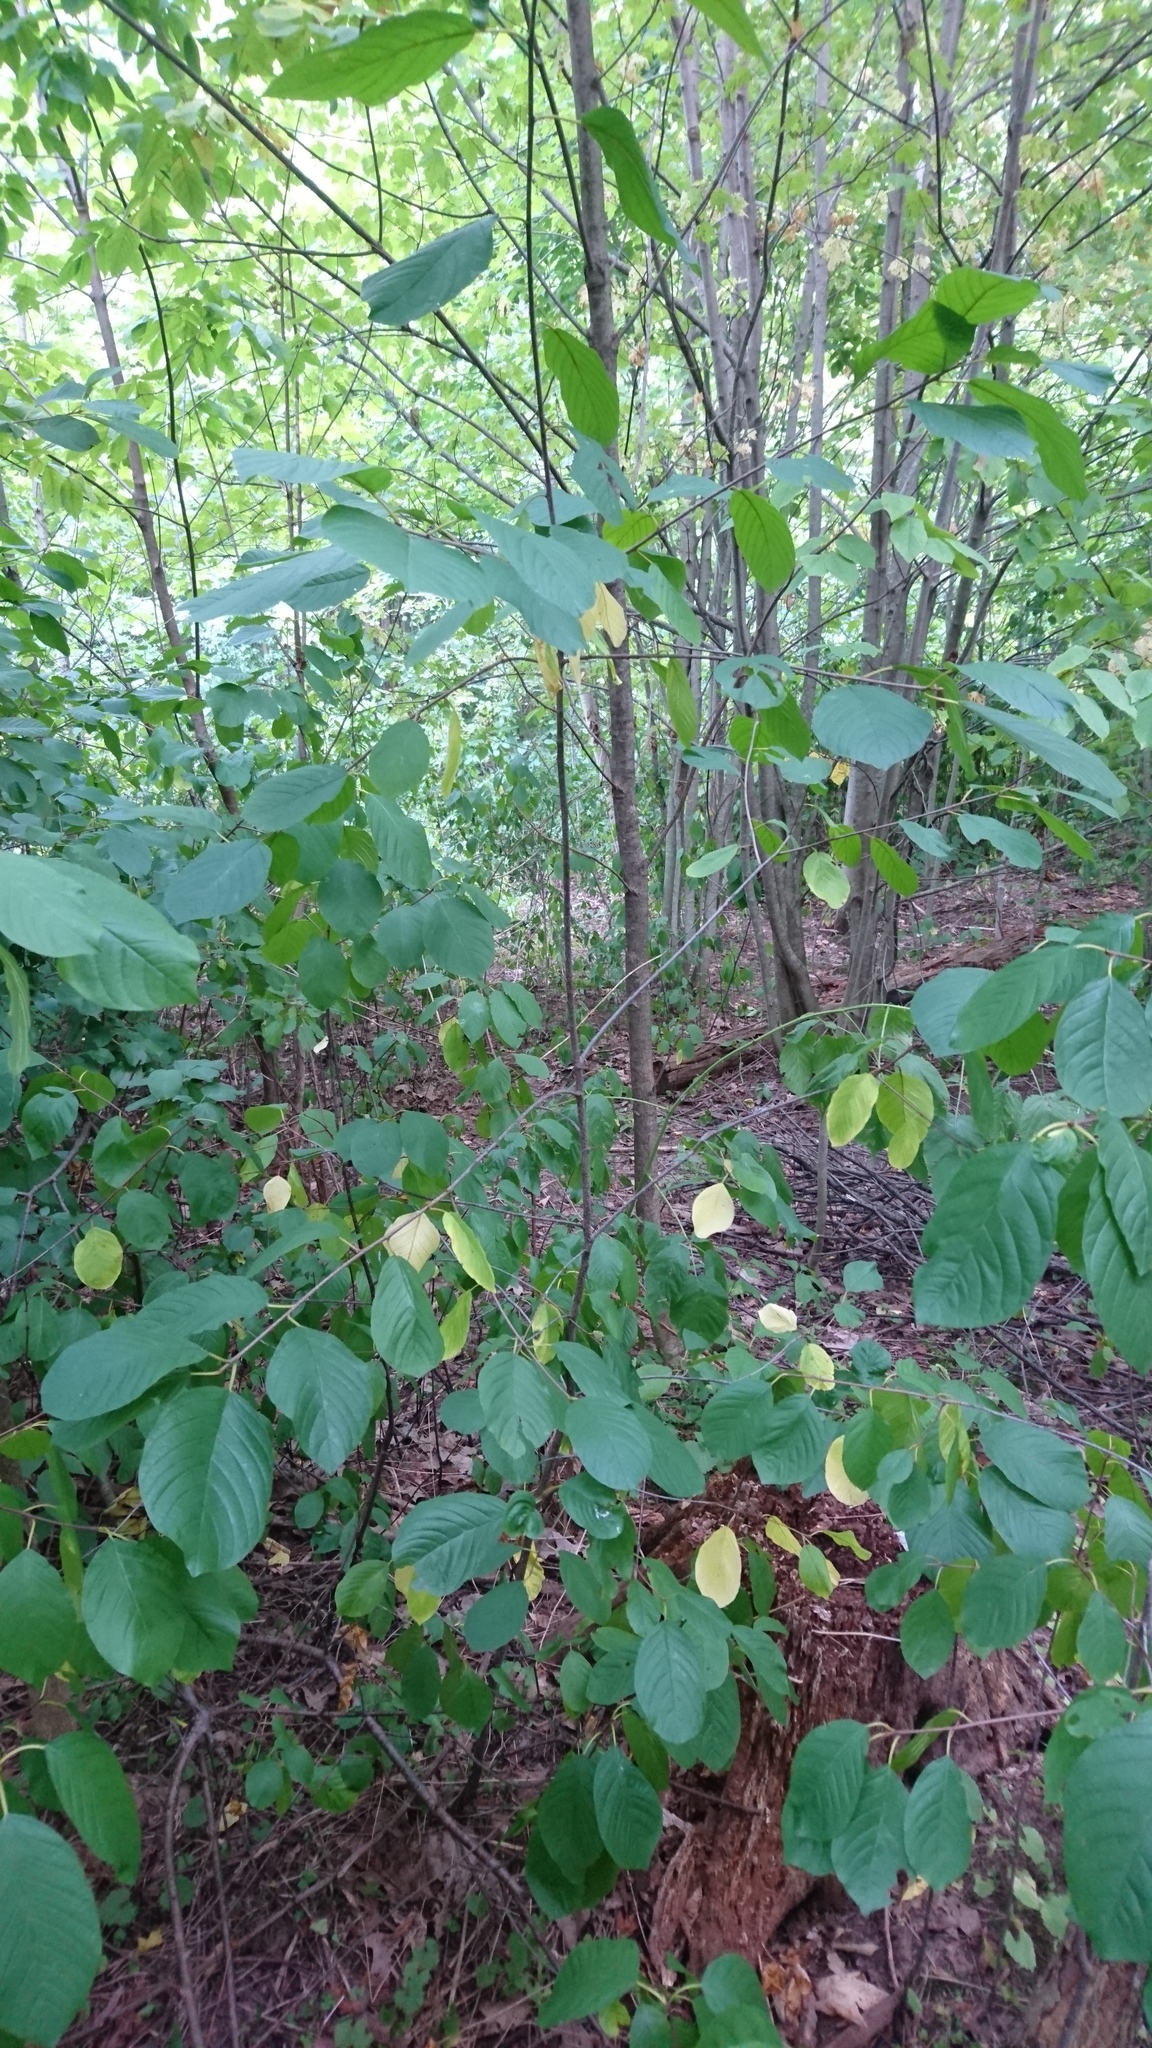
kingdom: Plantae
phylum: Tracheophyta
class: Magnoliopsida
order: Rosales
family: Rhamnaceae
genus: Frangula
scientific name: Frangula alnus
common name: Alder buckthorn
